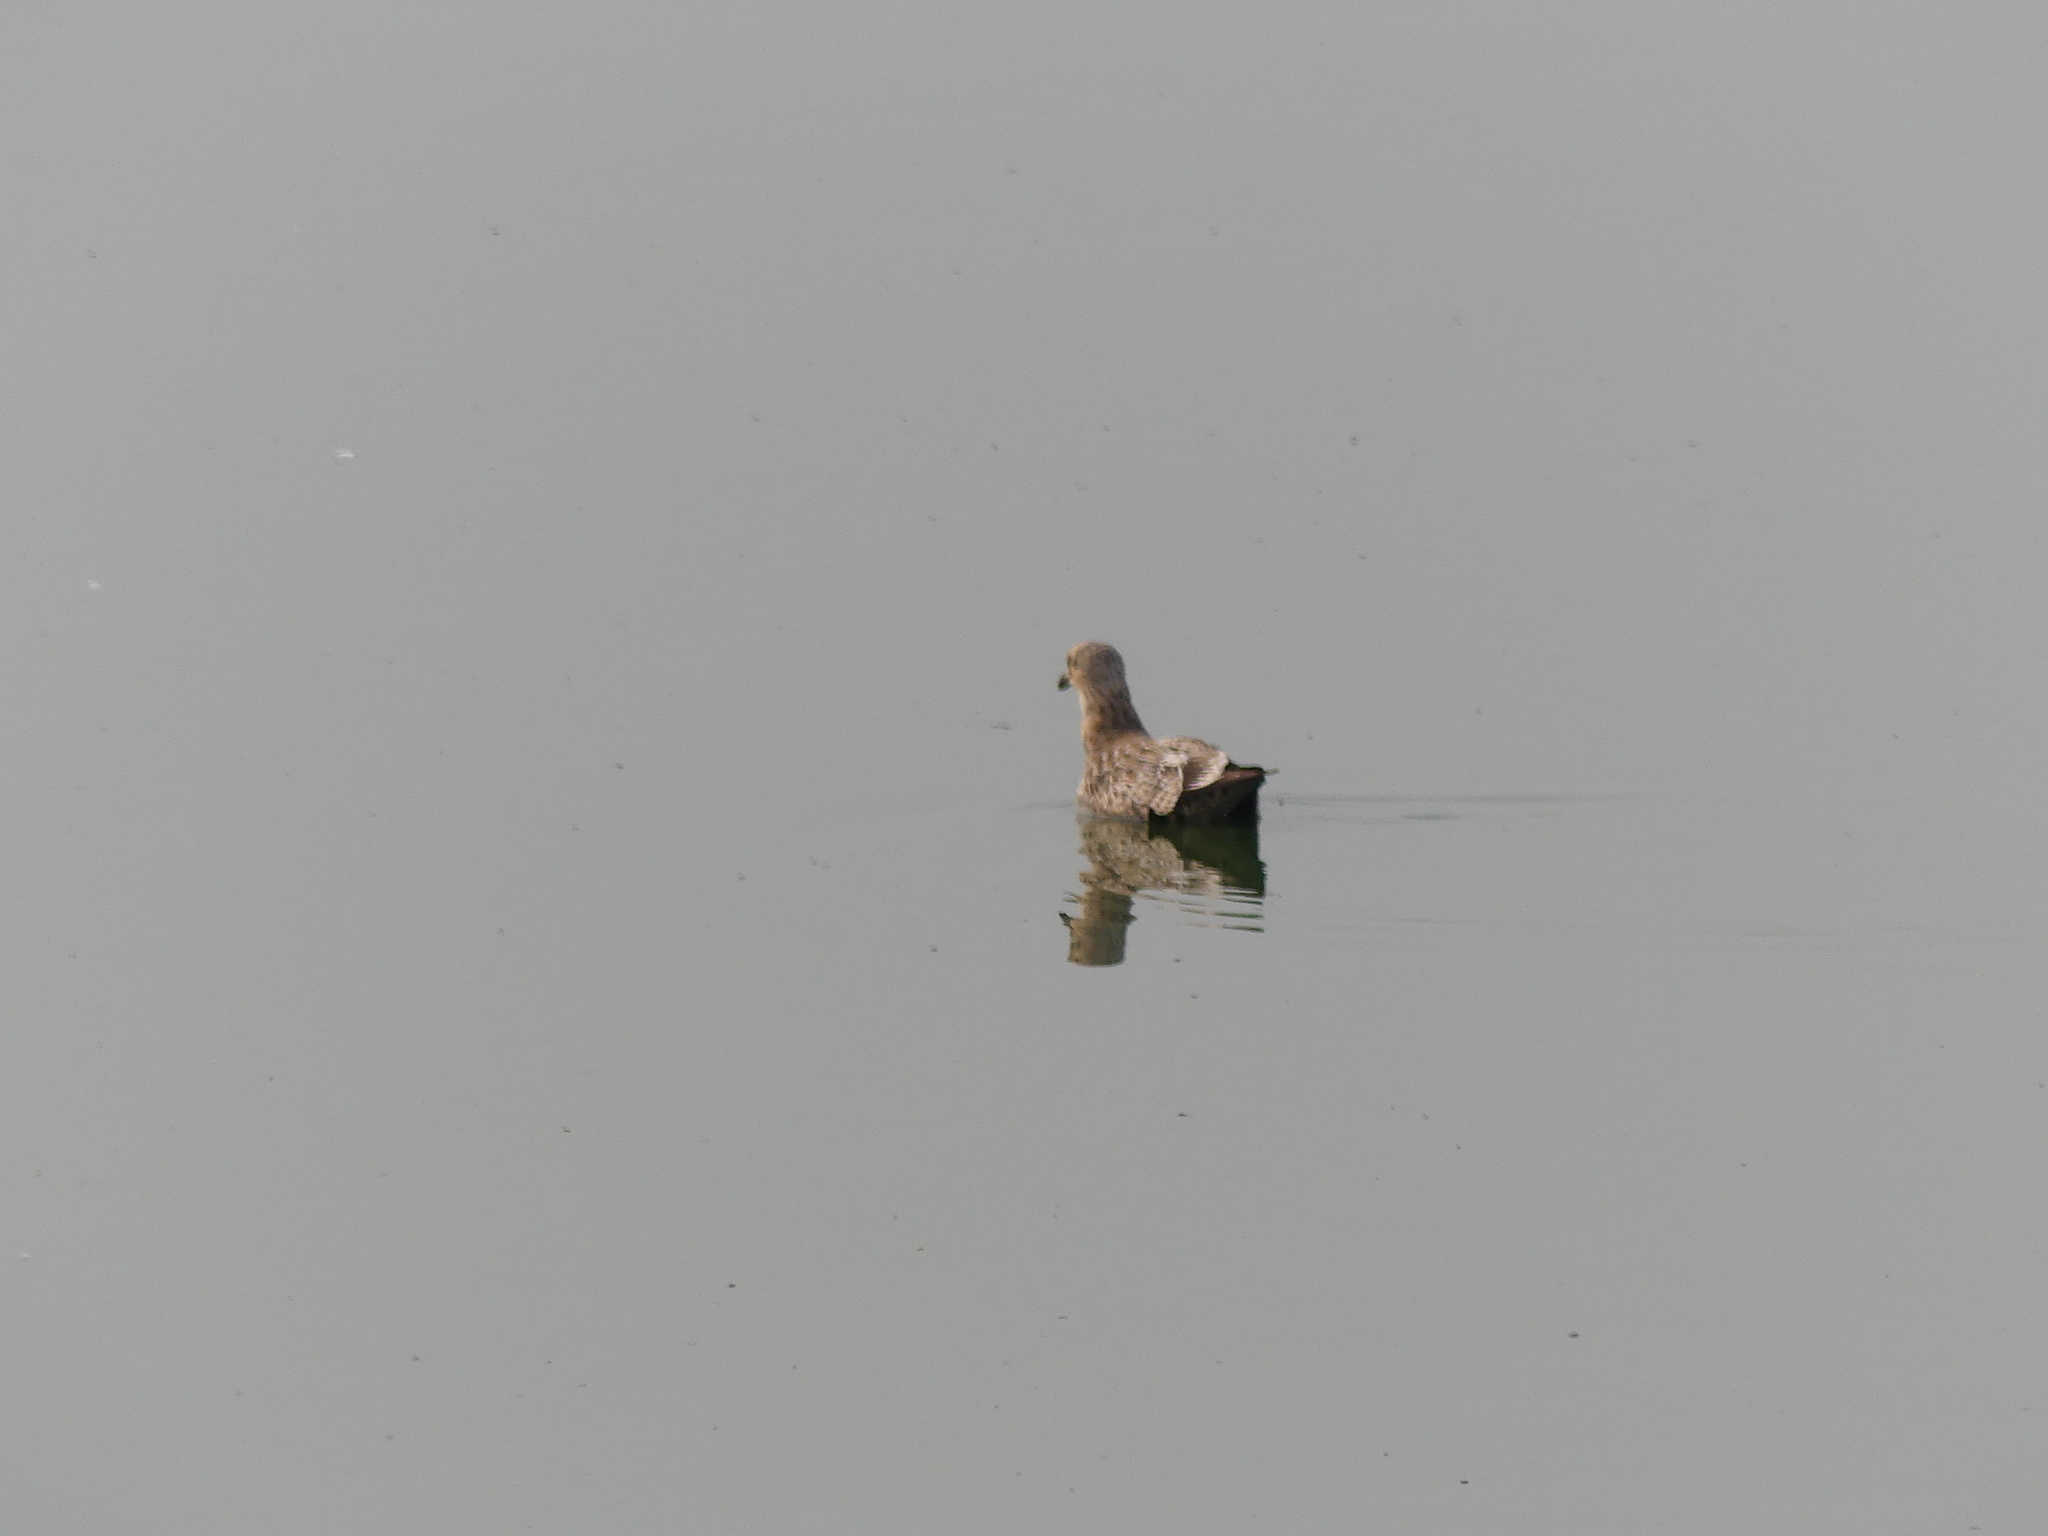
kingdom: Animalia
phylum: Chordata
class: Aves
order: Charadriiformes
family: Laridae
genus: Larus
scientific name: Larus californicus
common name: California gull
